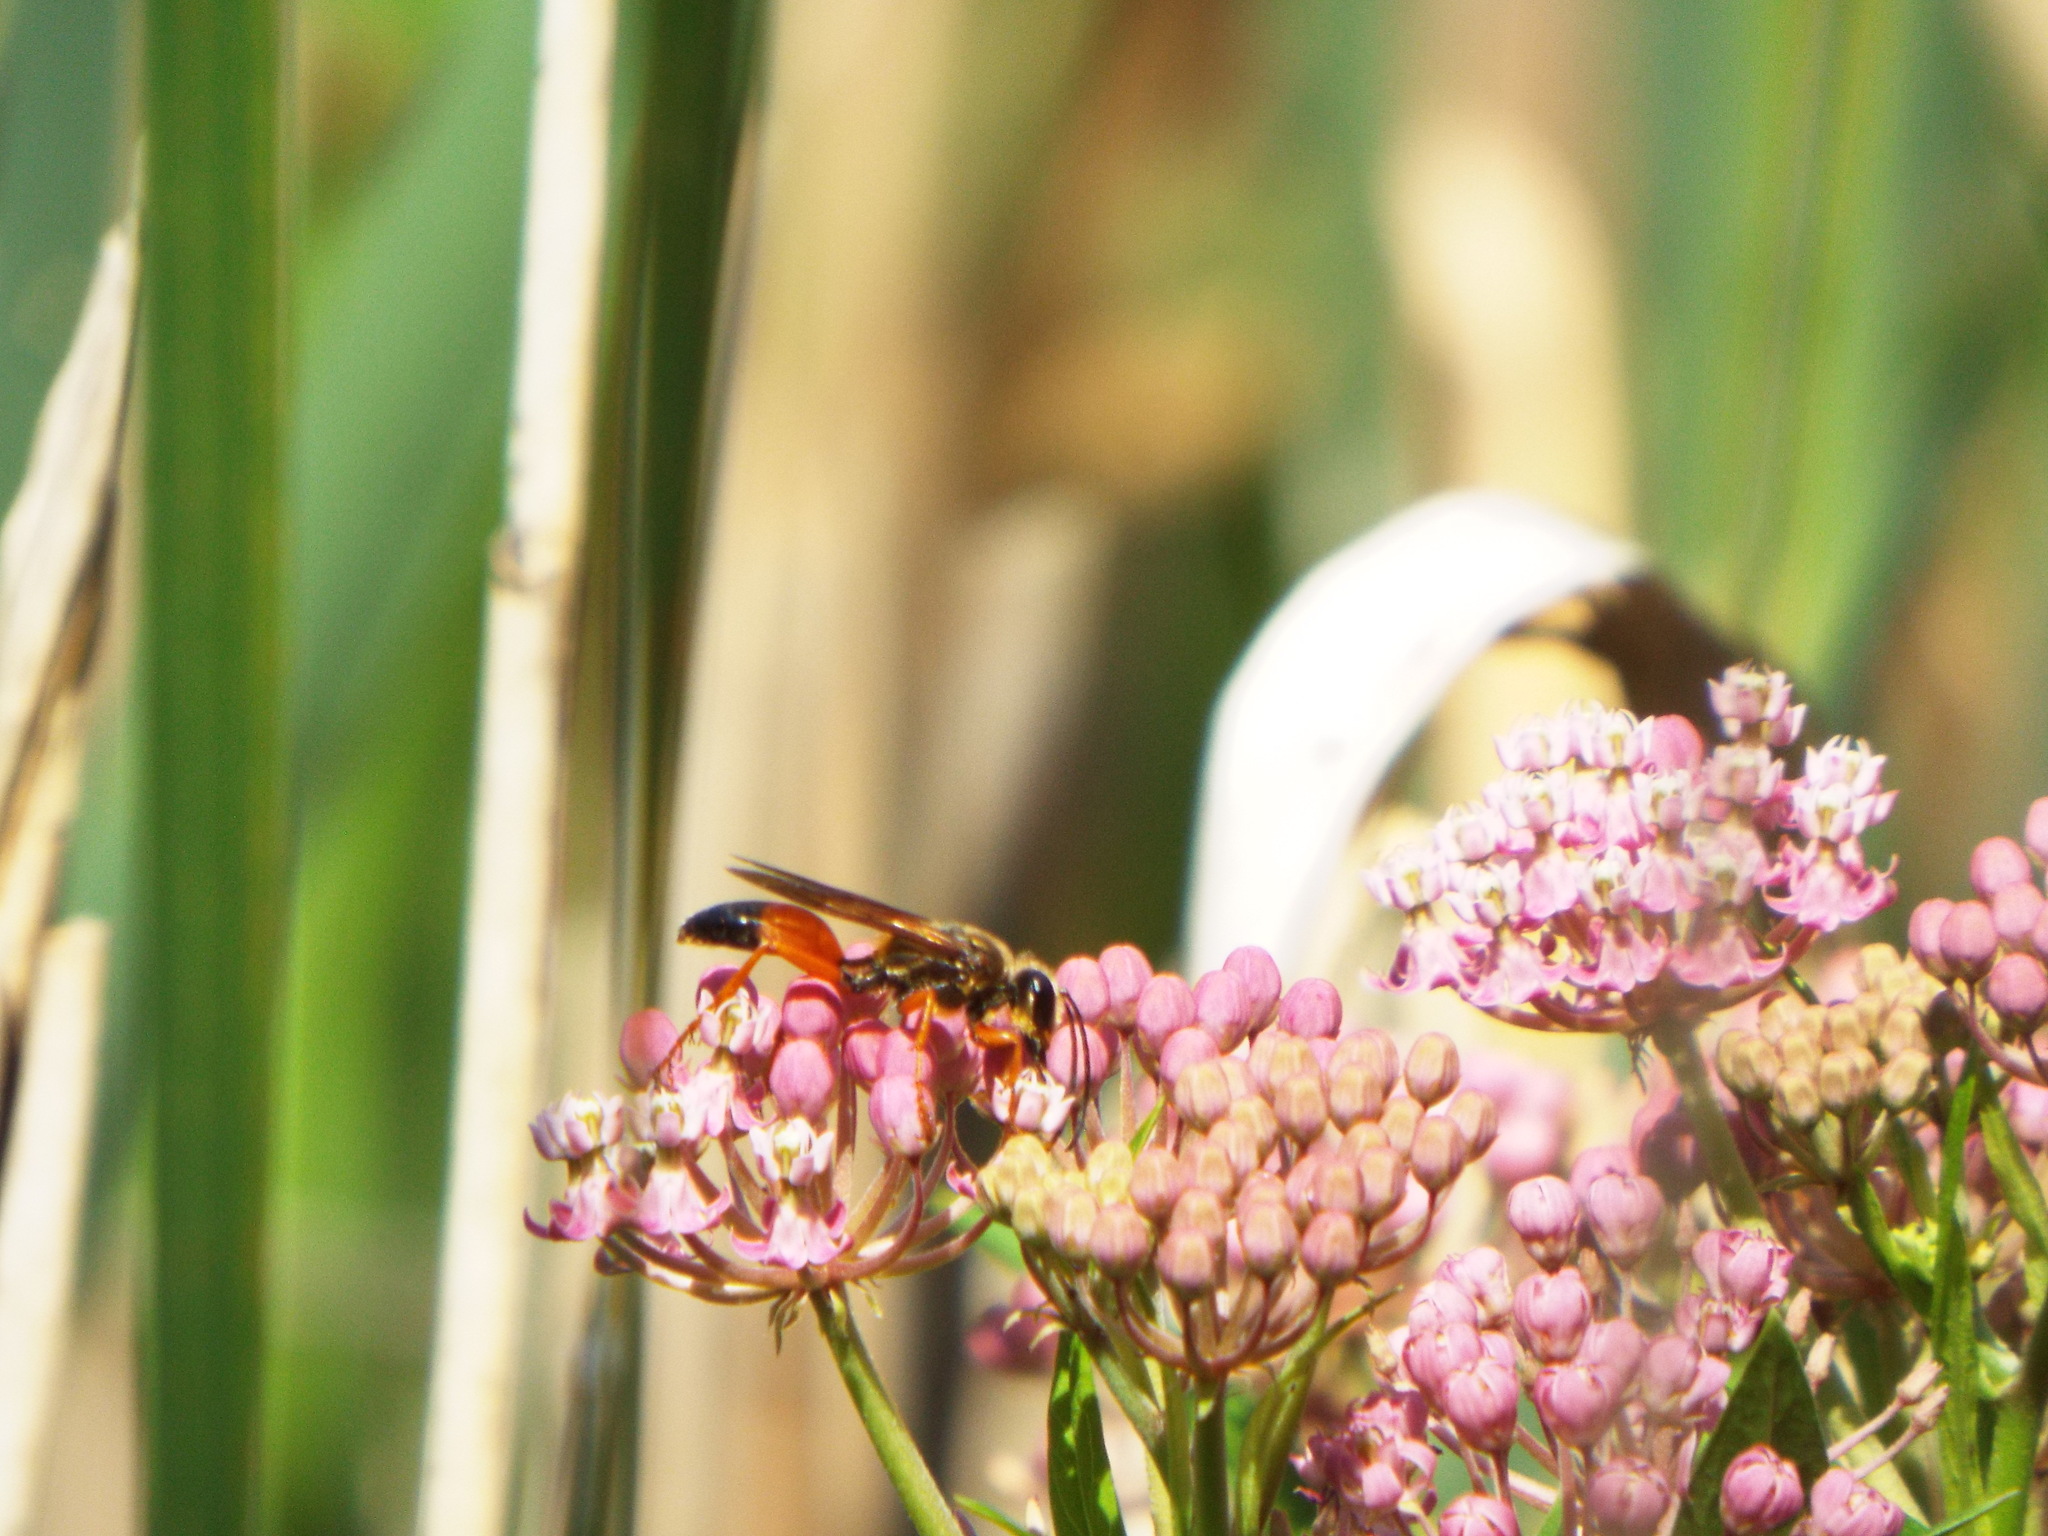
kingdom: Animalia
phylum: Arthropoda
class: Insecta
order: Hymenoptera
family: Sphecidae
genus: Sphex
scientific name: Sphex ichneumoneus
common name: Great golden digger wasp
